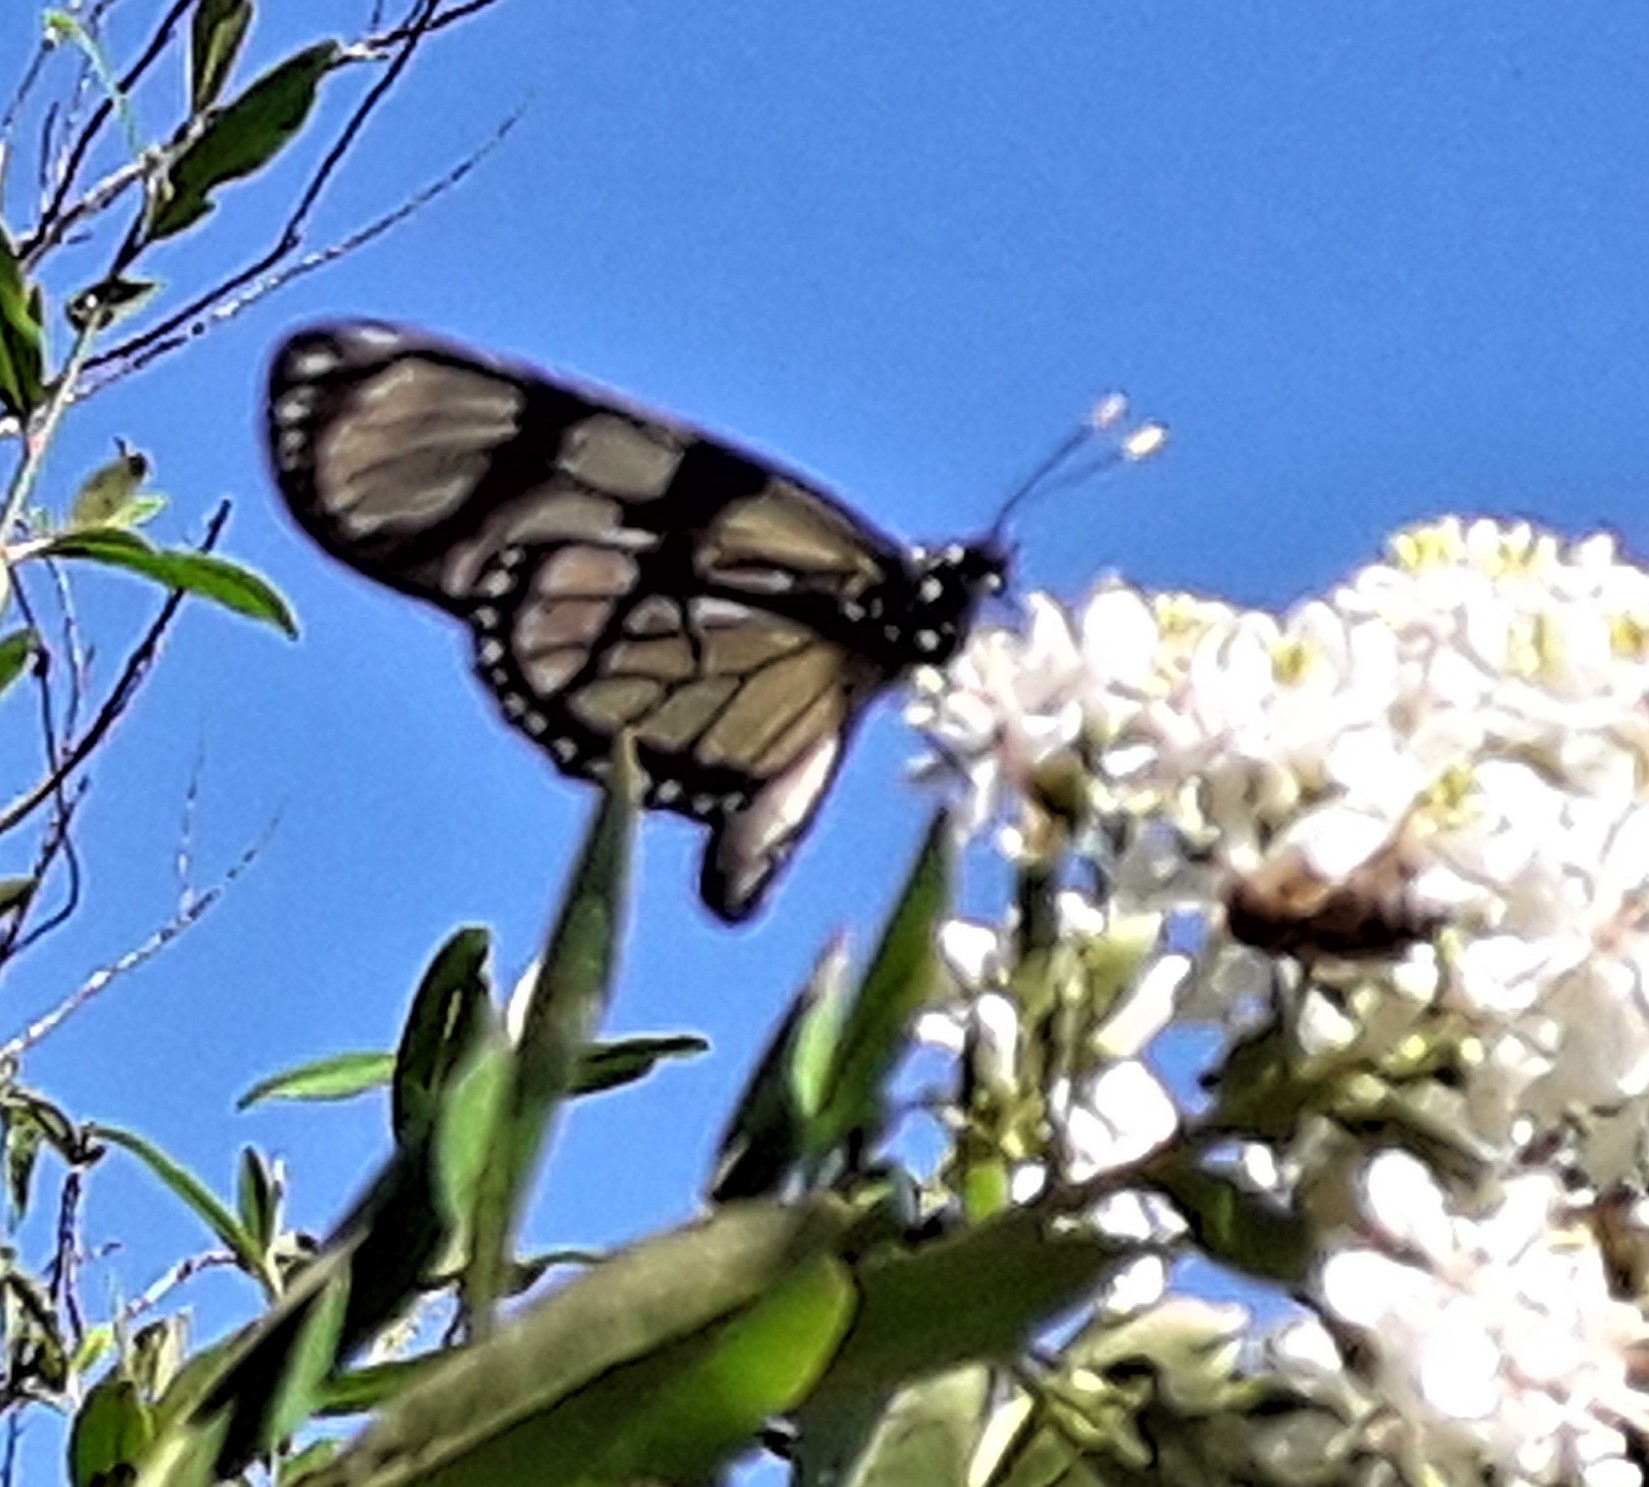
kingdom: Animalia
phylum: Arthropoda
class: Insecta
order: Lepidoptera
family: Nymphalidae
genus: Lycorea
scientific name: Lycorea ilione
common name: Clearwing mimic-queen
